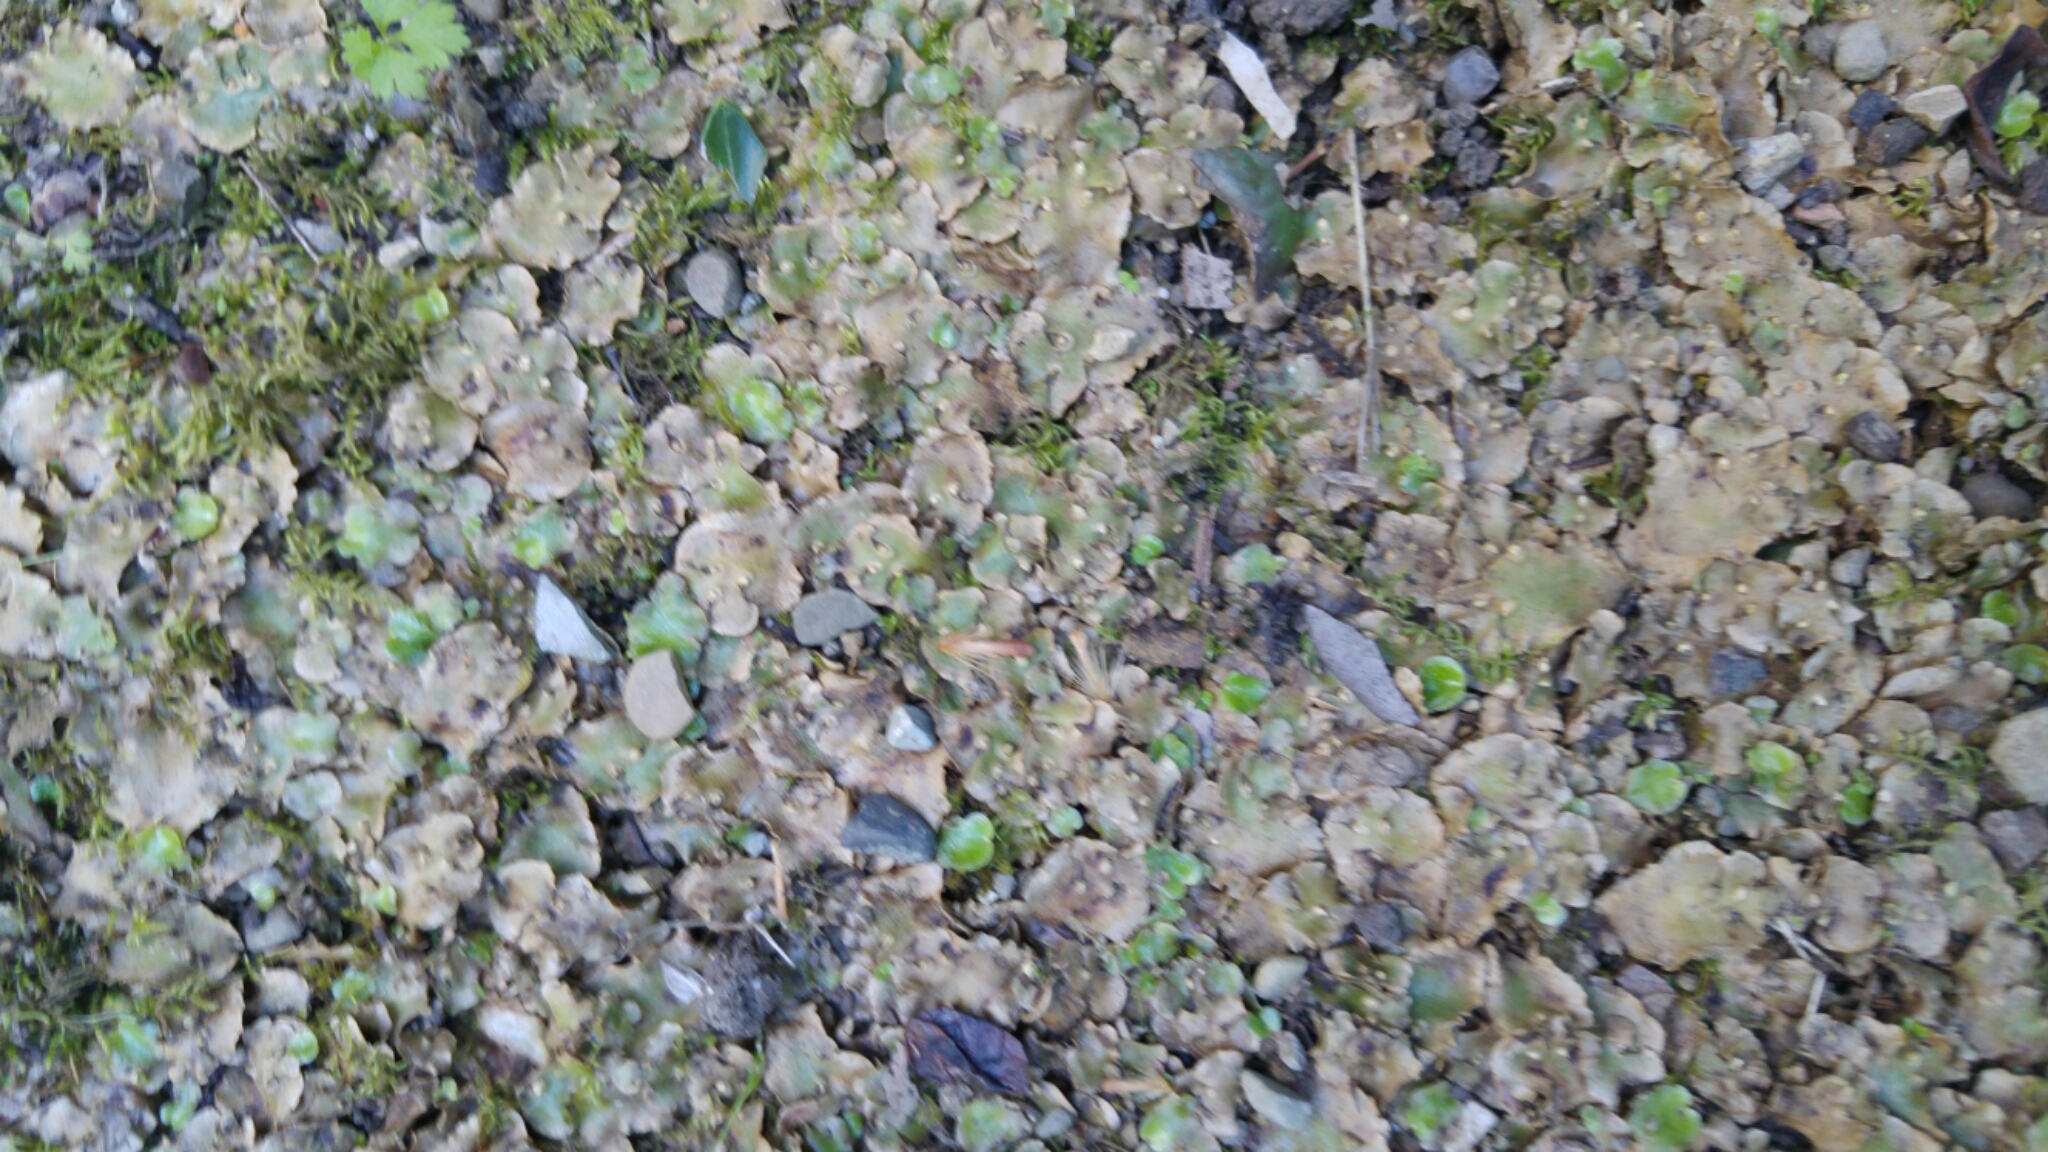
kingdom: Plantae
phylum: Marchantiophyta
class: Marchantiopsida
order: Lunulariales
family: Lunulariaceae
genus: Lunularia
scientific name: Lunularia cruciata
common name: Crescent-cup liverwort
